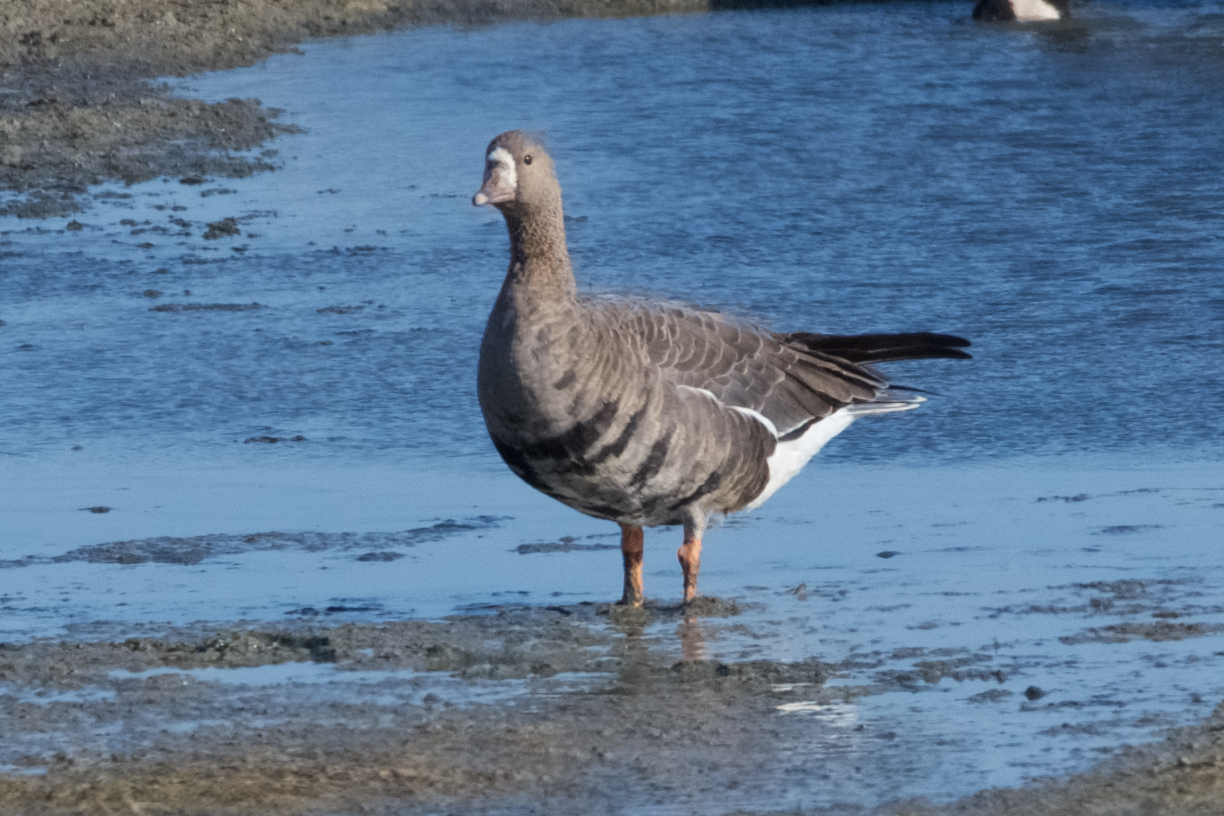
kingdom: Animalia
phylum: Chordata
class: Aves
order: Anseriformes
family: Anatidae
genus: Anser
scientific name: Anser albifrons
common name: Greater white-fronted goose
